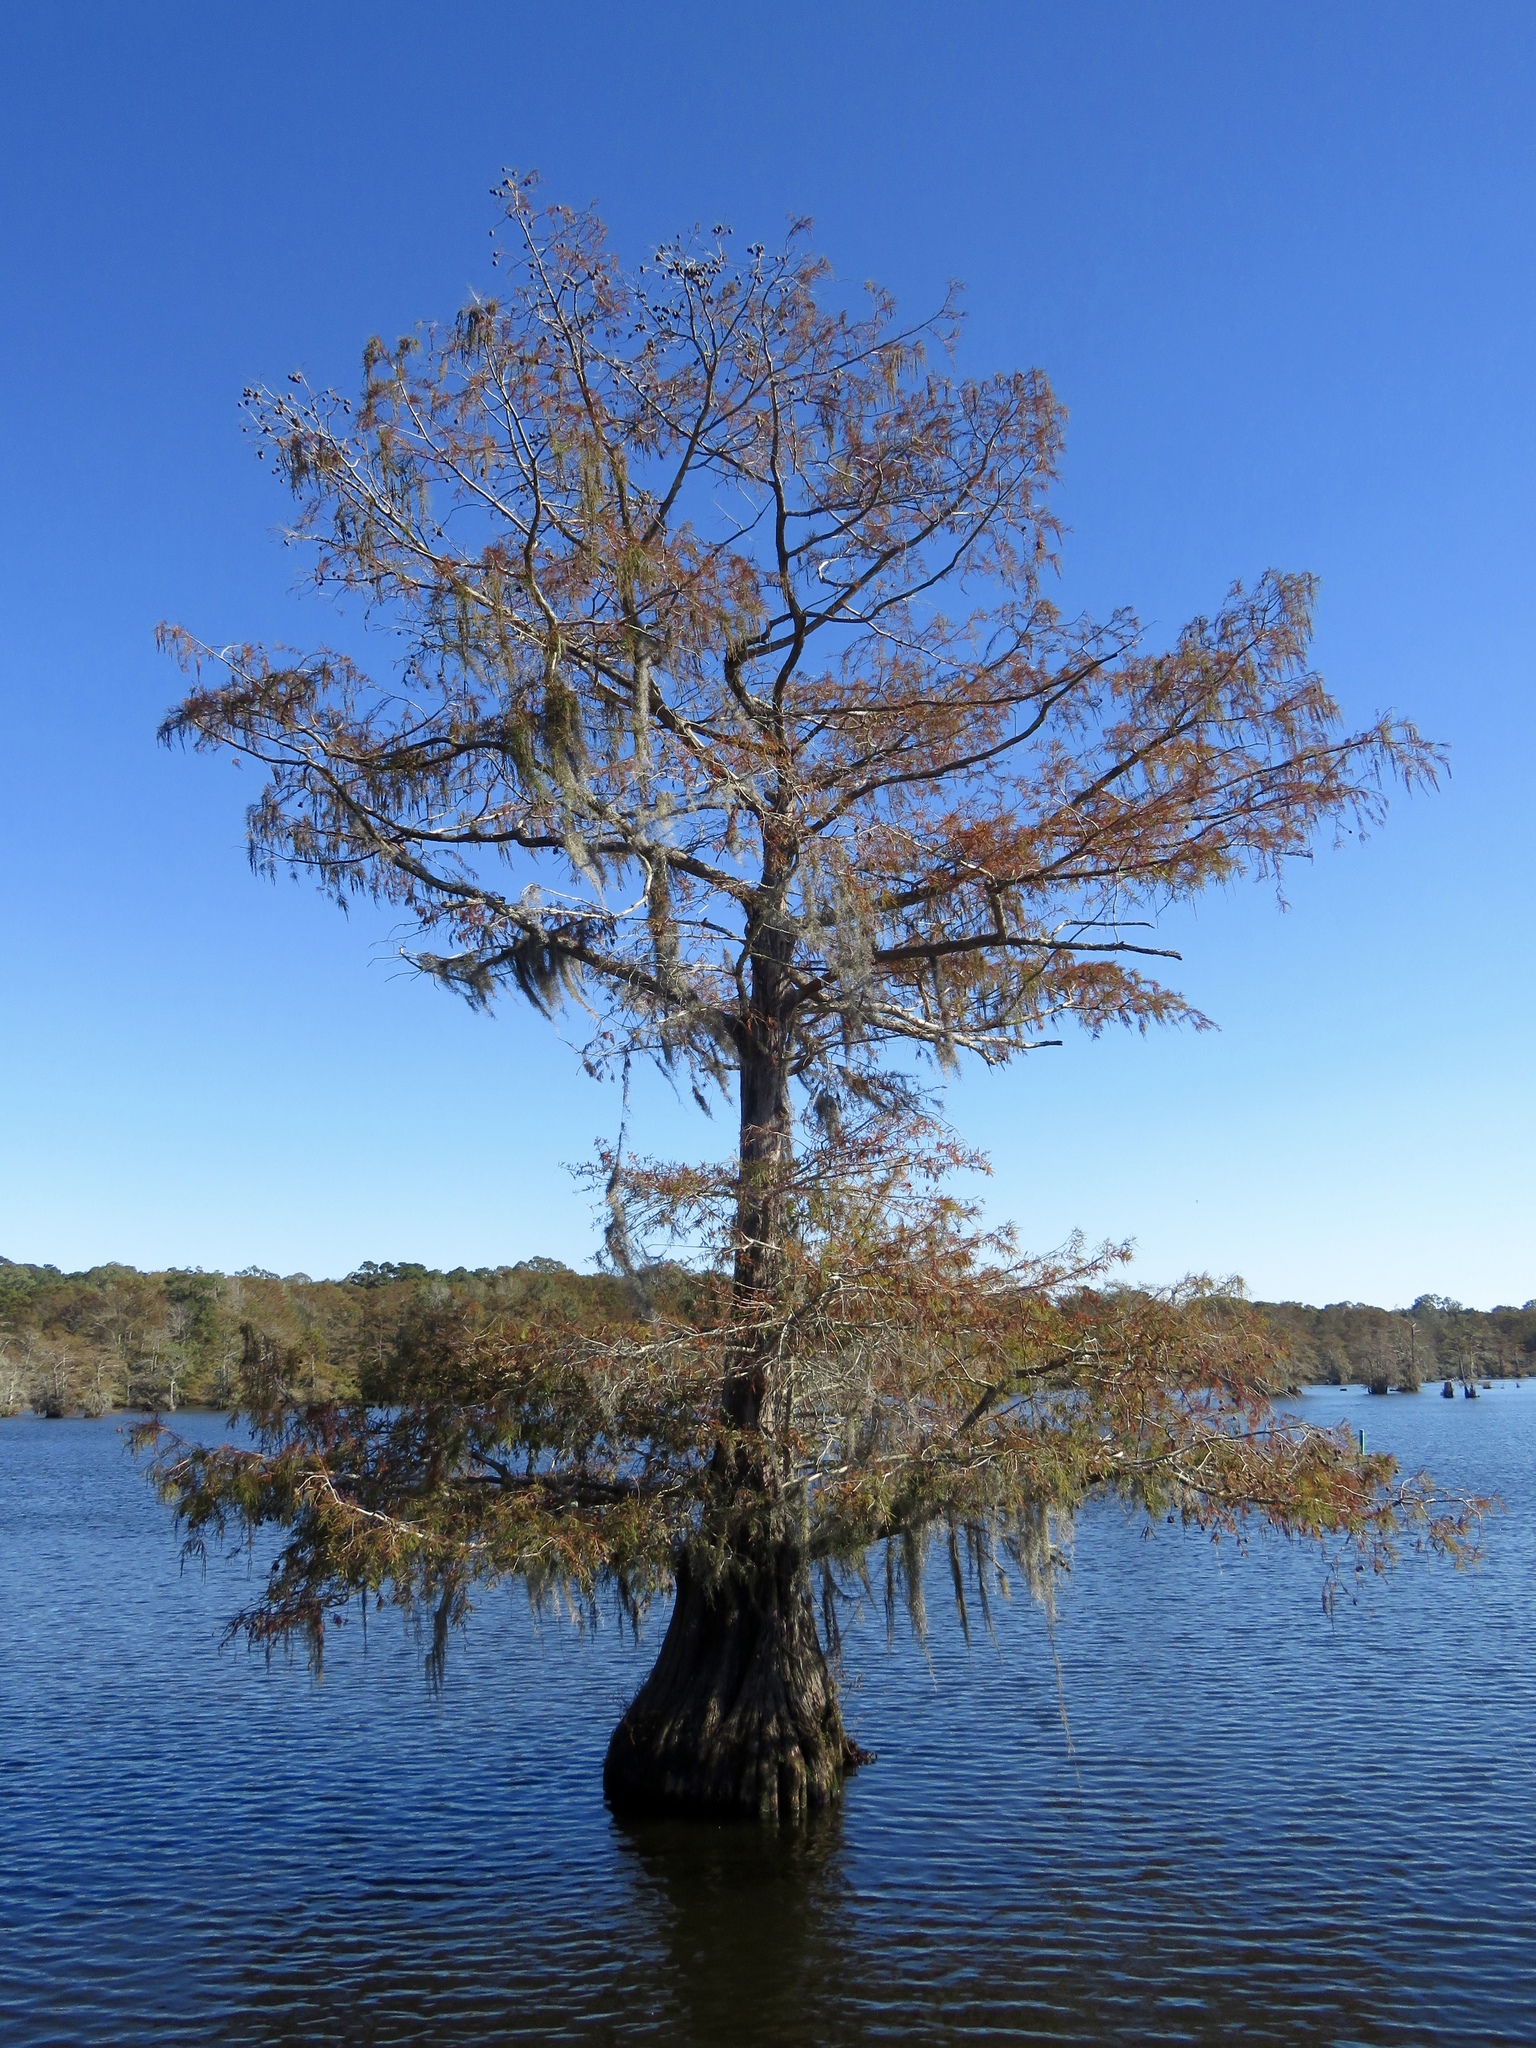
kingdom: Plantae
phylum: Tracheophyta
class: Pinopsida
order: Pinales
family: Cupressaceae
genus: Taxodium
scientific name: Taxodium distichum
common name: Bald cypress
